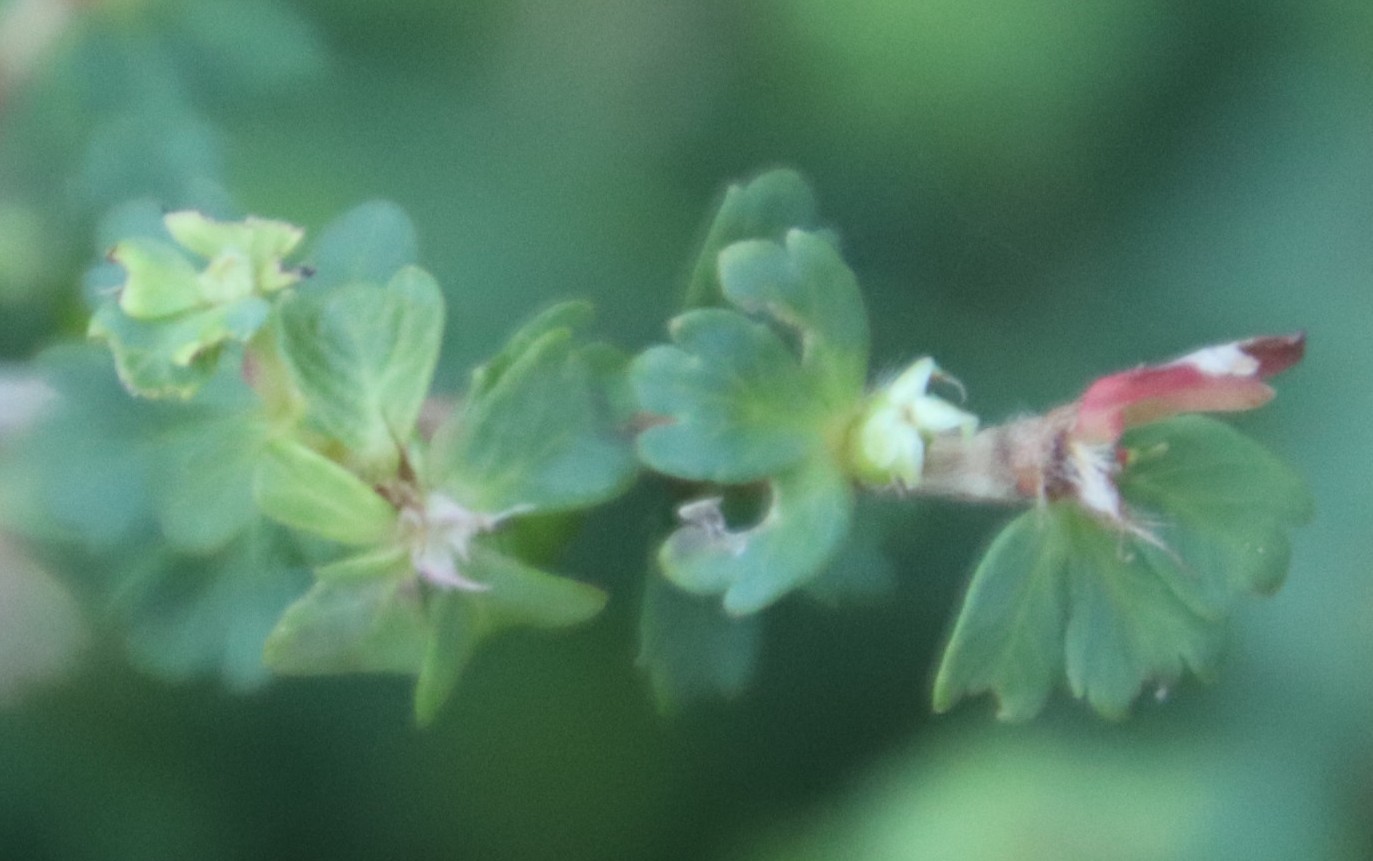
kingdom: Plantae
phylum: Tracheophyta
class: Magnoliopsida
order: Rosales
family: Rosaceae
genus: Cliffortia
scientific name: Cliffortia dentata
